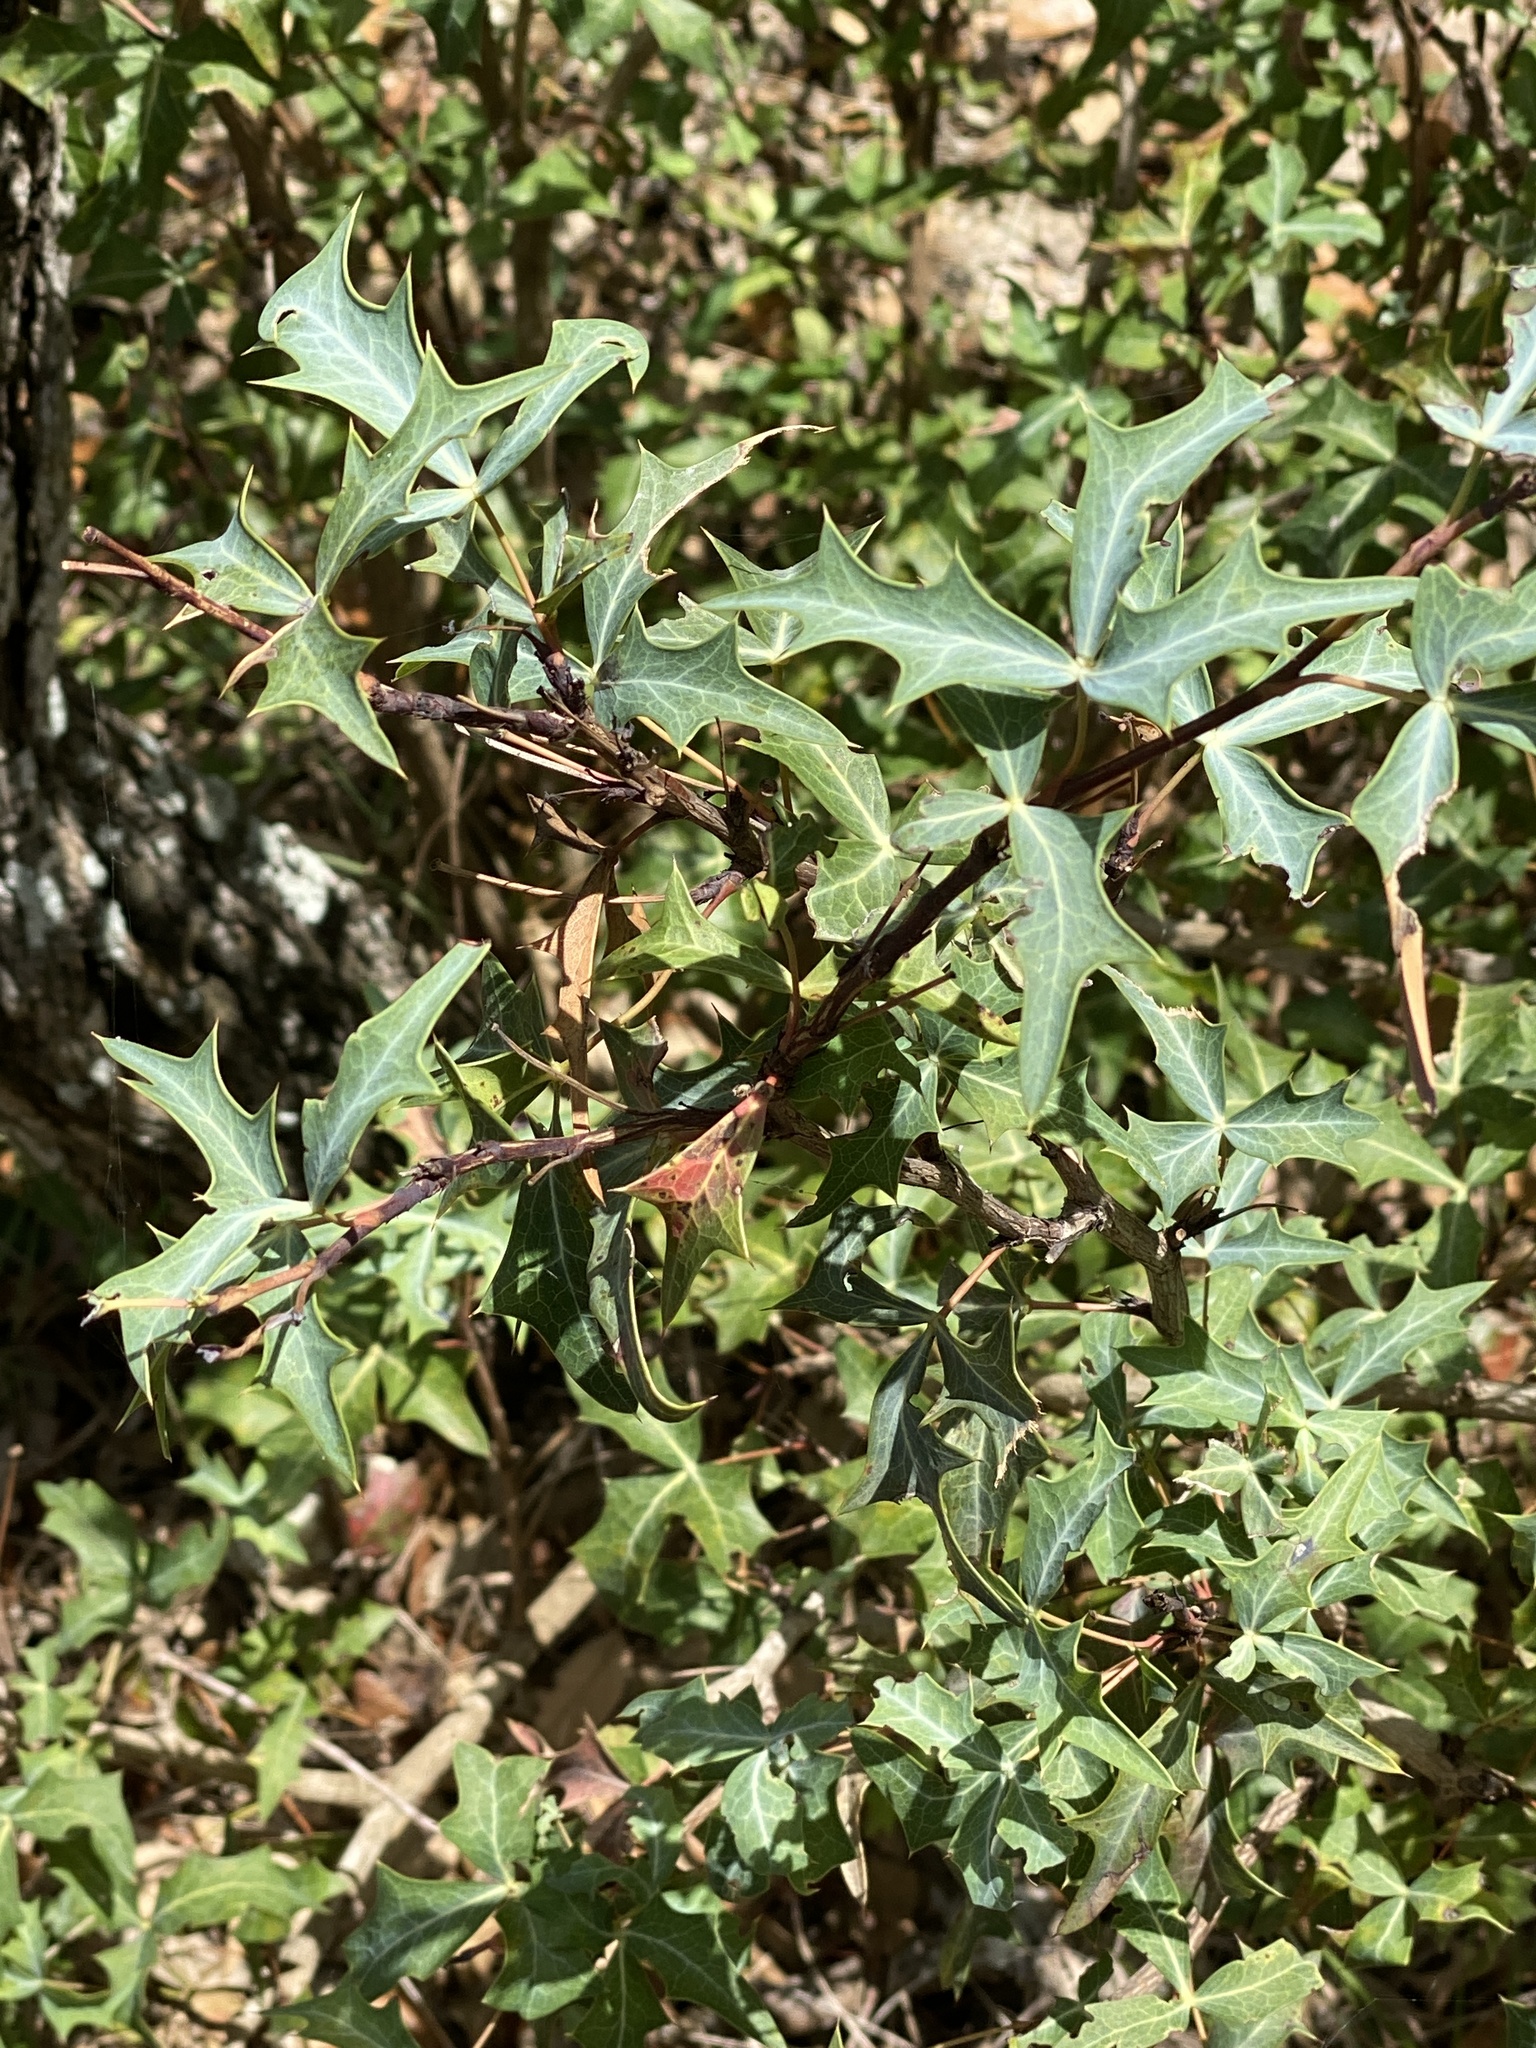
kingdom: Plantae
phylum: Tracheophyta
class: Magnoliopsida
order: Ranunculales
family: Berberidaceae
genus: Alloberberis
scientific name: Alloberberis trifoliolata
